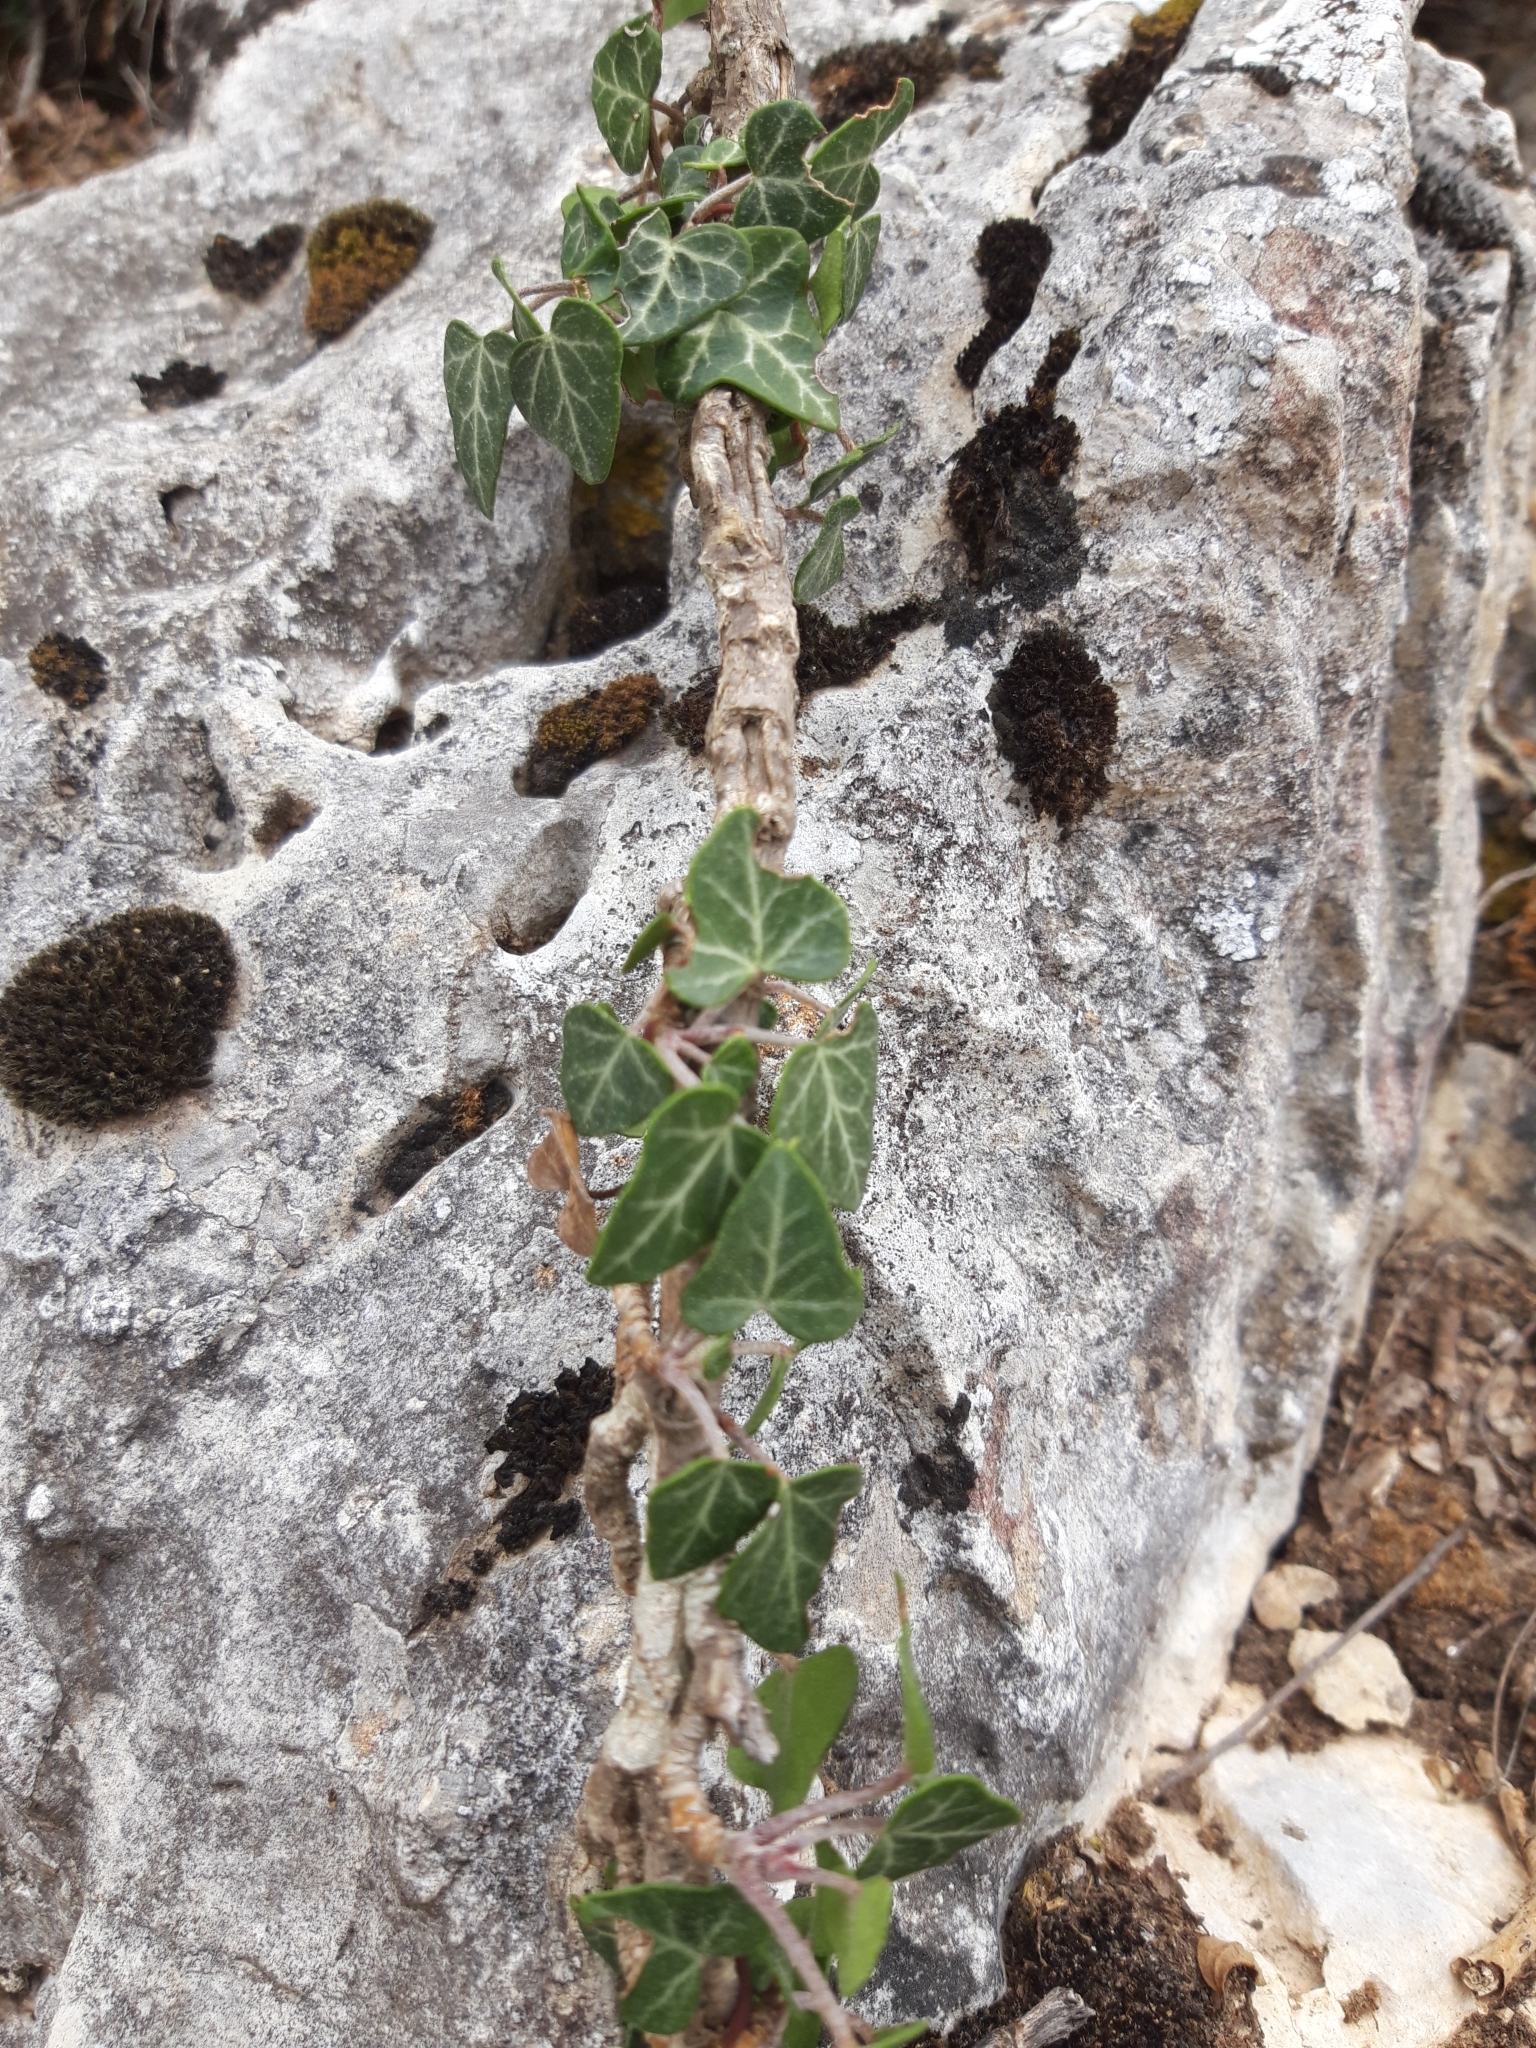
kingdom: Plantae
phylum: Tracheophyta
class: Magnoliopsida
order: Apiales
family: Araliaceae
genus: Hedera
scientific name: Hedera helix
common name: Ivy
